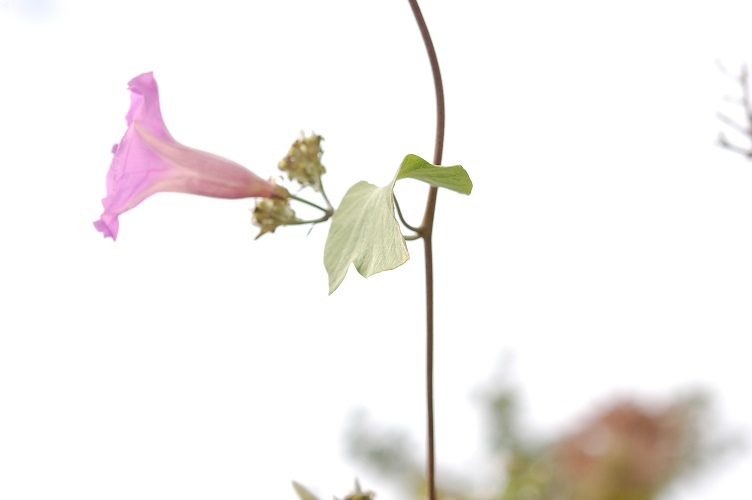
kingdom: Plantae
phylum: Tracheophyta
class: Magnoliopsida
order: Solanales
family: Convolvulaceae
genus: Ipomoea
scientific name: Ipomoea leucotricha
